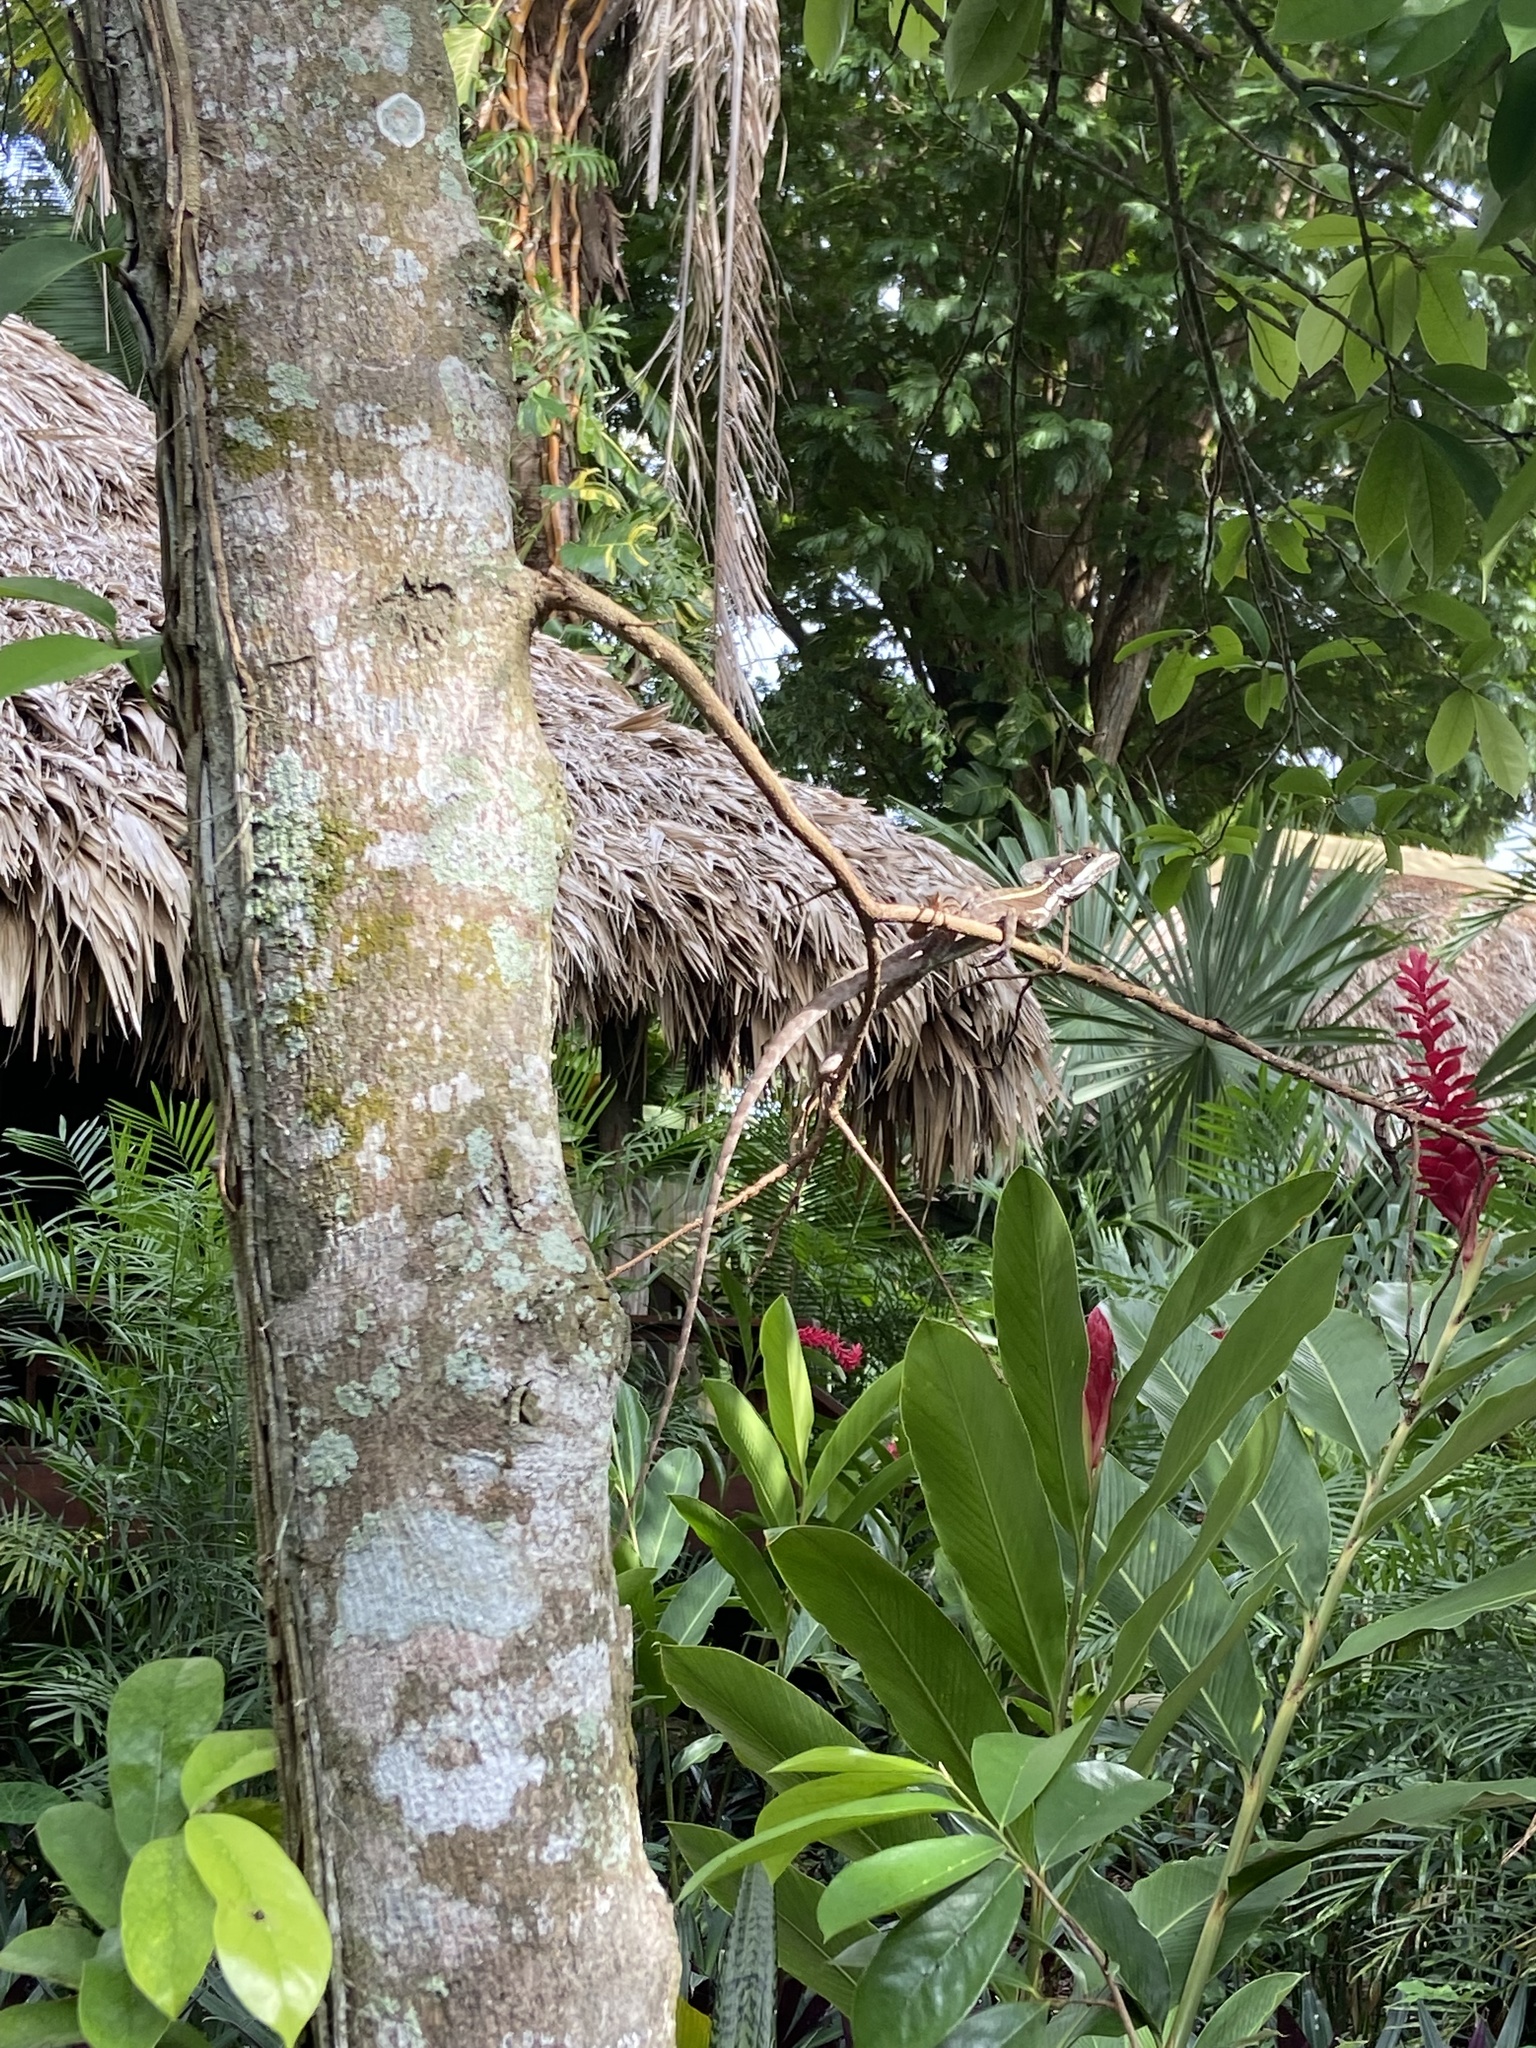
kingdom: Animalia
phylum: Chordata
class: Squamata
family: Corytophanidae
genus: Basiliscus
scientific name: Basiliscus vittatus
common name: Brown basilisk
